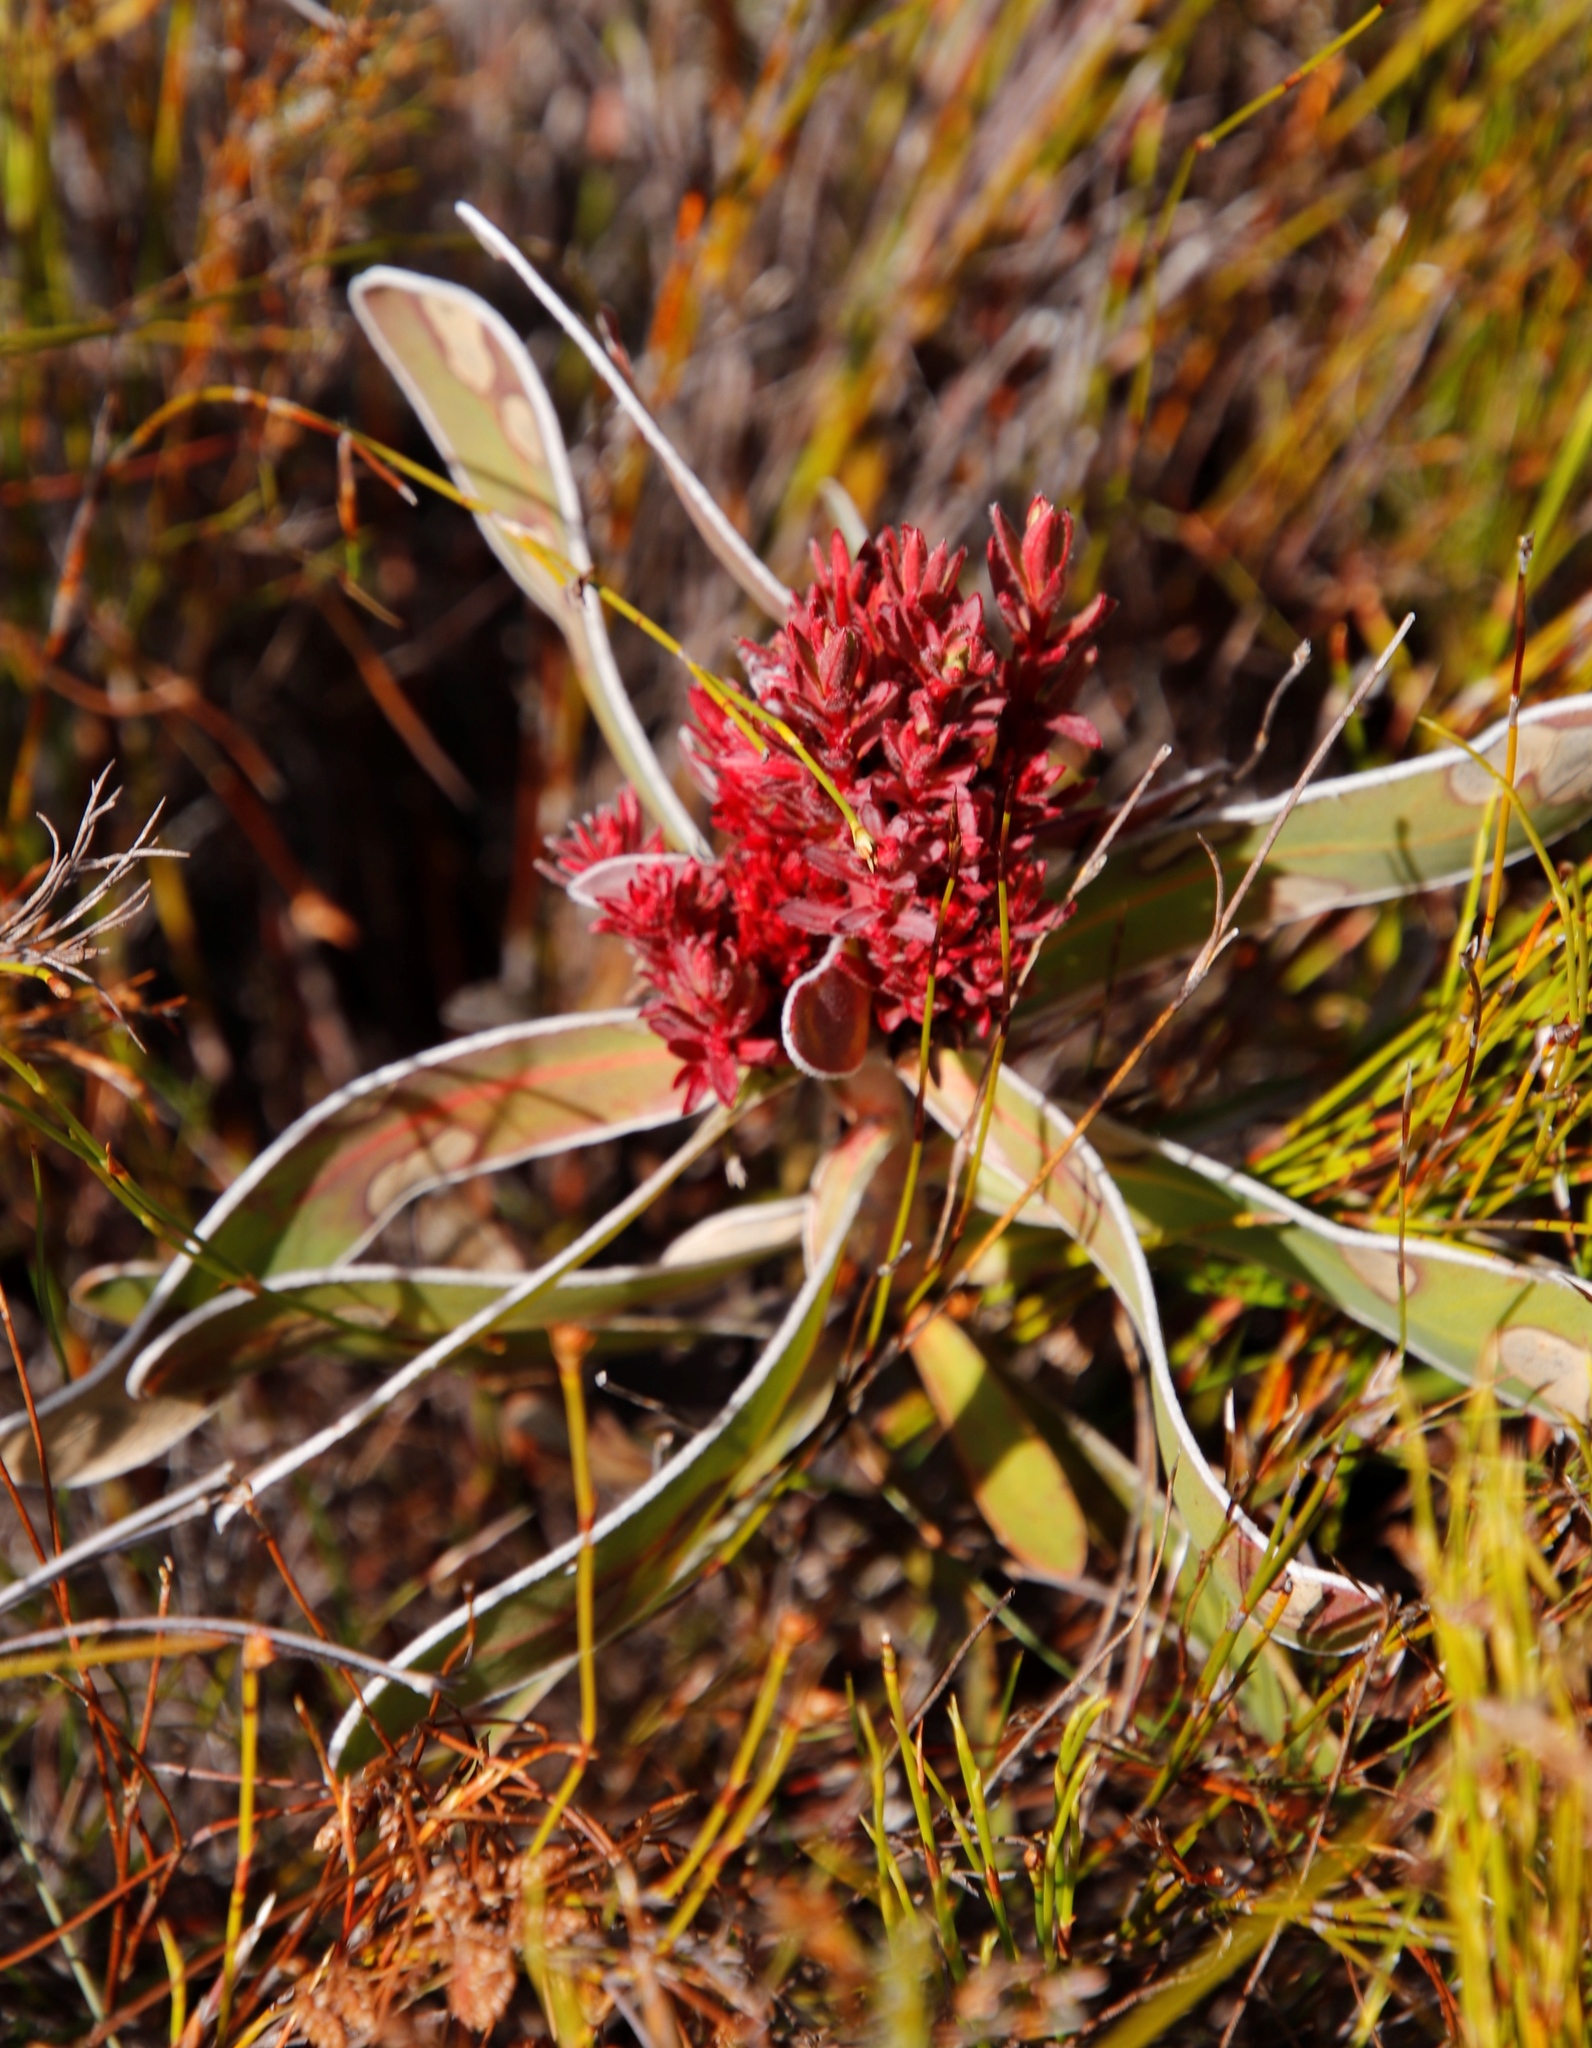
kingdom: Bacteria
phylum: Firmicutes
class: Bacilli
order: Acholeplasmatales
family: Acholeplasmataceae
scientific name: Acholeplasmataceae
